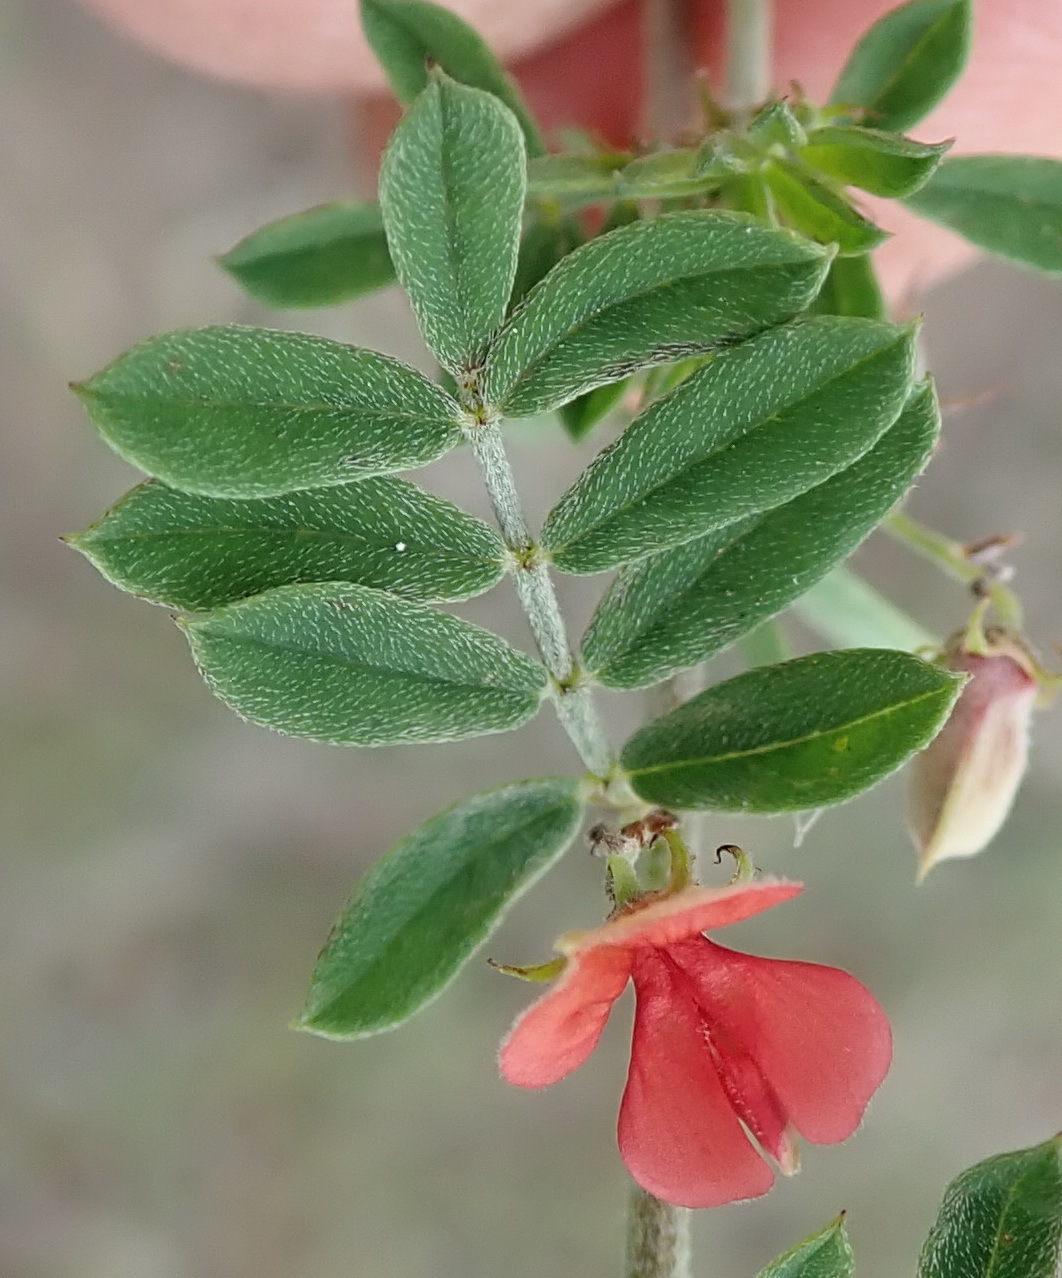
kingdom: Plantae
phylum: Tracheophyta
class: Magnoliopsida
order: Fabales
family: Fabaceae
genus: Indigofera
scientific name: Indigofera poliotes
